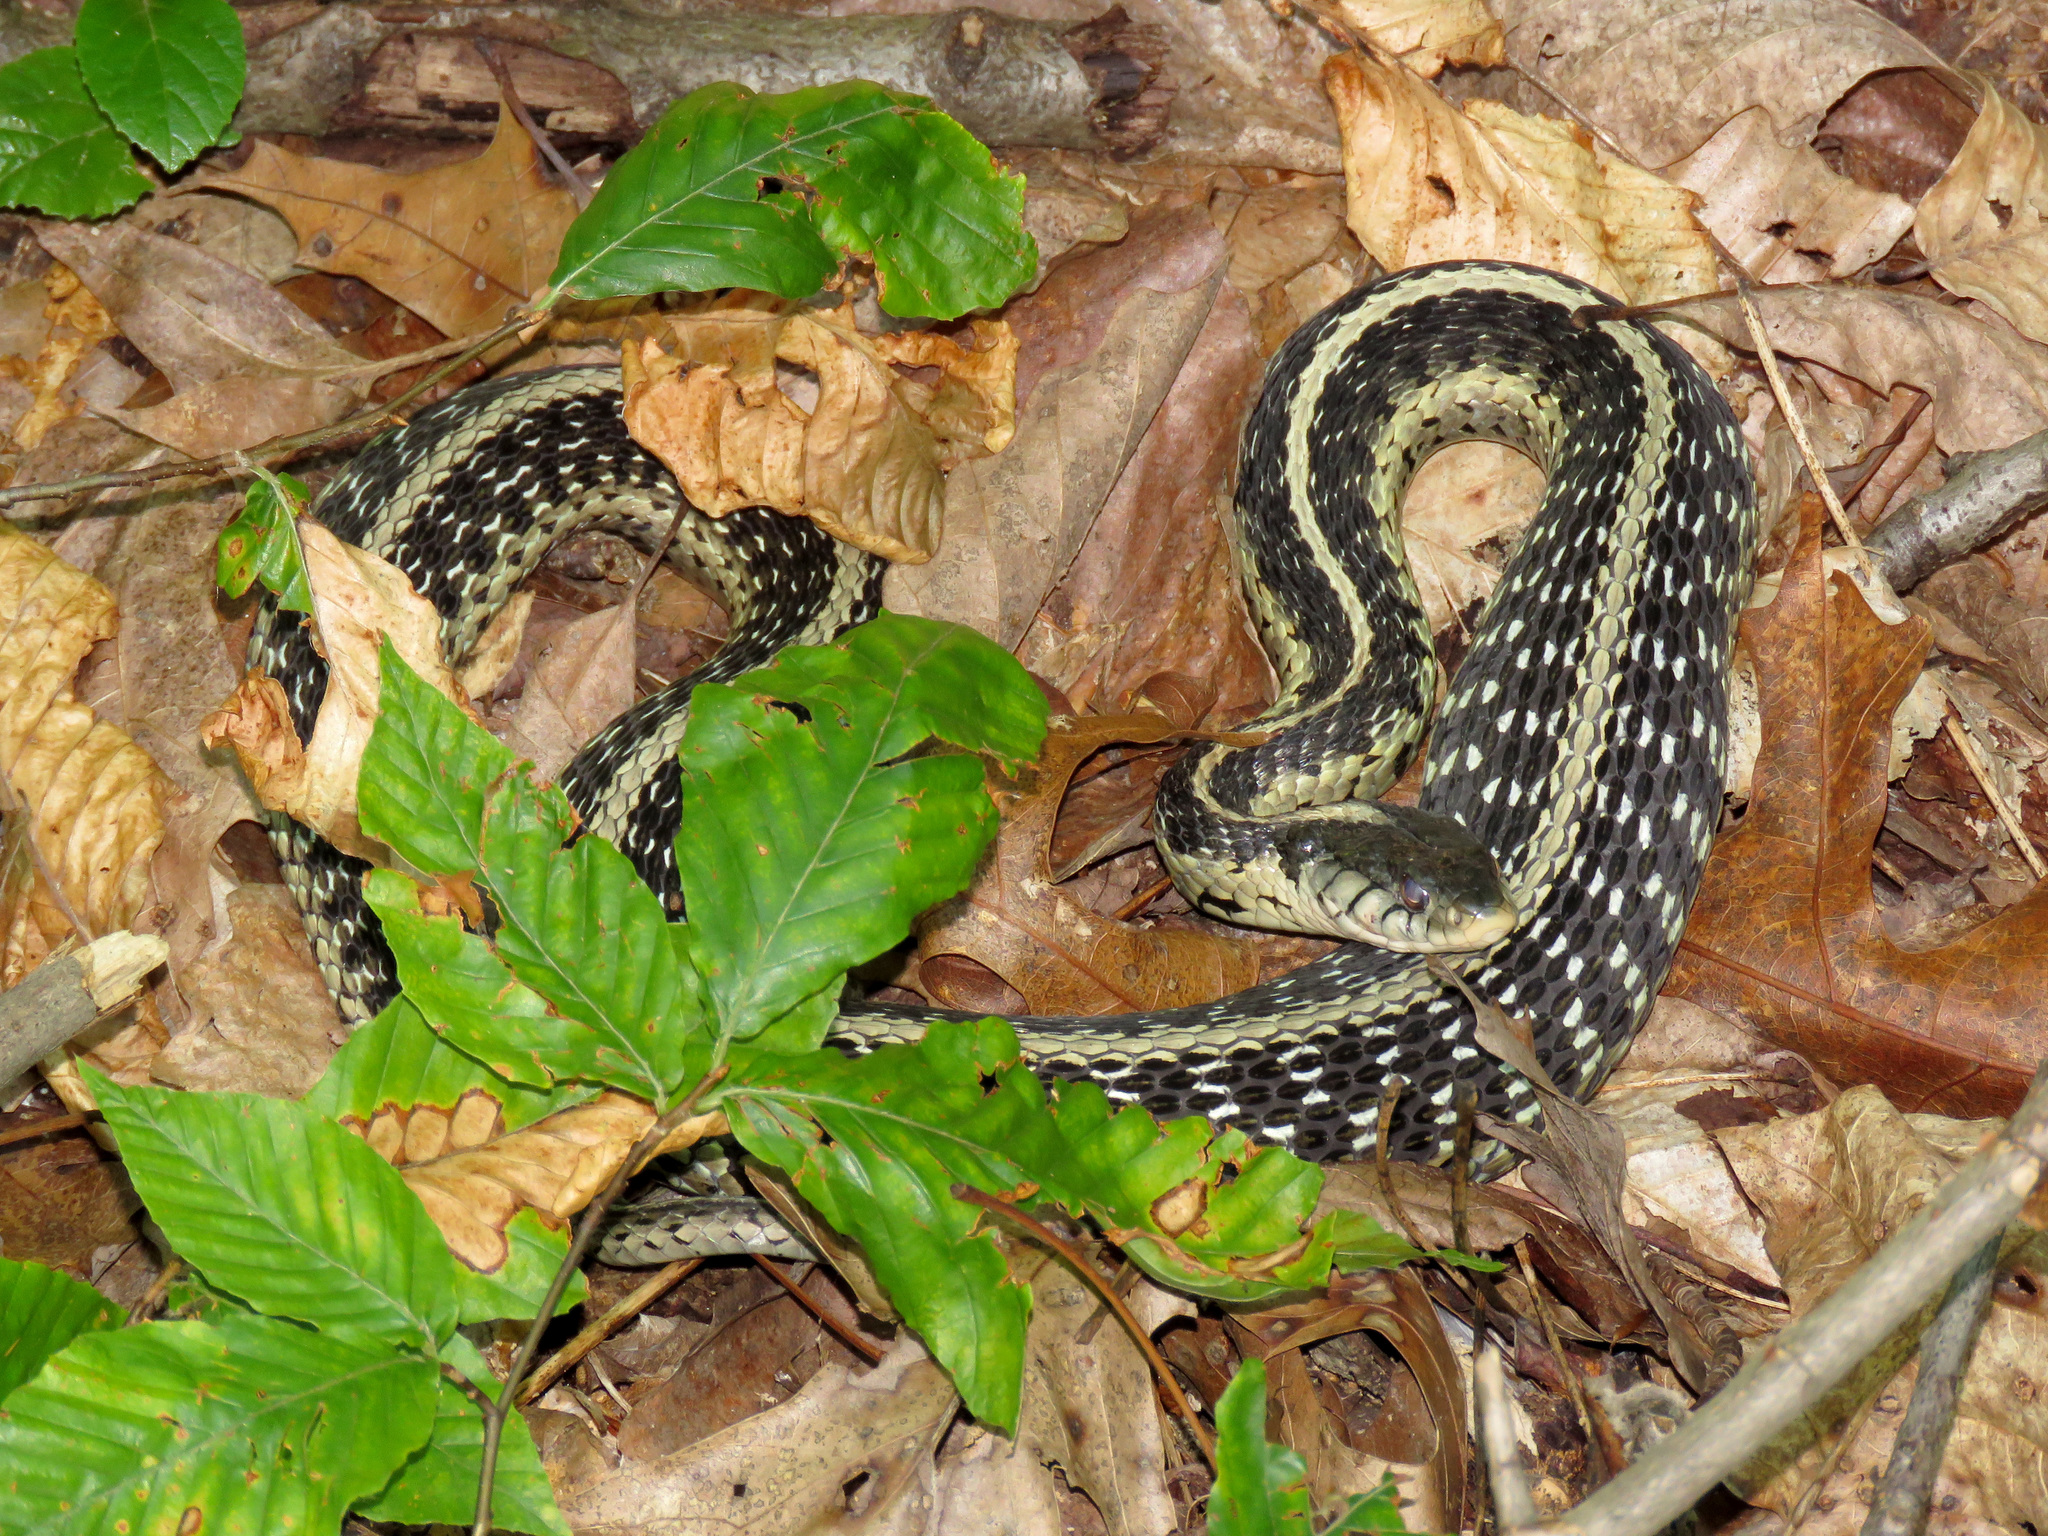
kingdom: Animalia
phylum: Chordata
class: Squamata
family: Colubridae
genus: Thamnophis
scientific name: Thamnophis sirtalis
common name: Common garter snake
